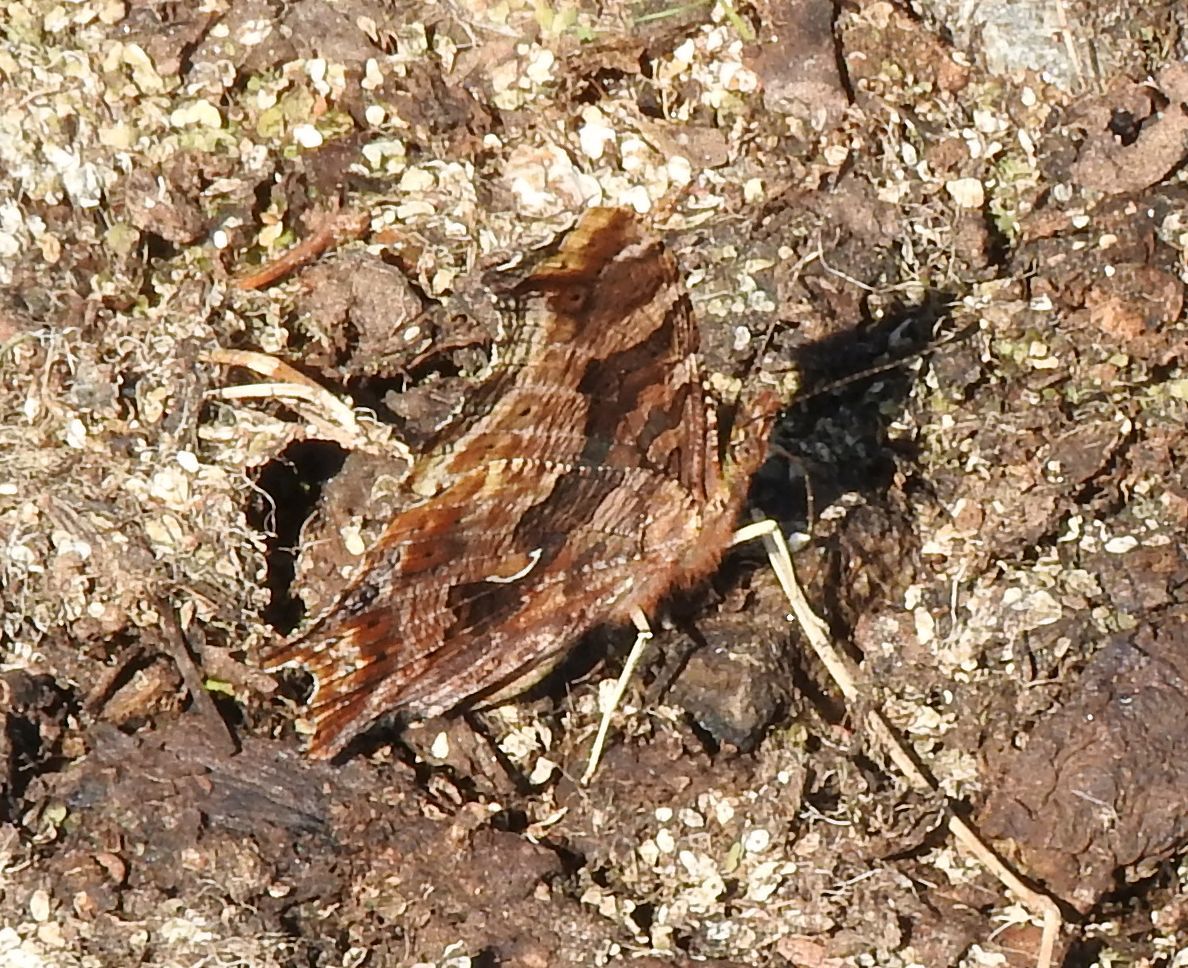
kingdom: Animalia
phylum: Arthropoda
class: Insecta
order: Lepidoptera
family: Nymphalidae
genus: Polygonia
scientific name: Polygonia comma
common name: Eastern comma
